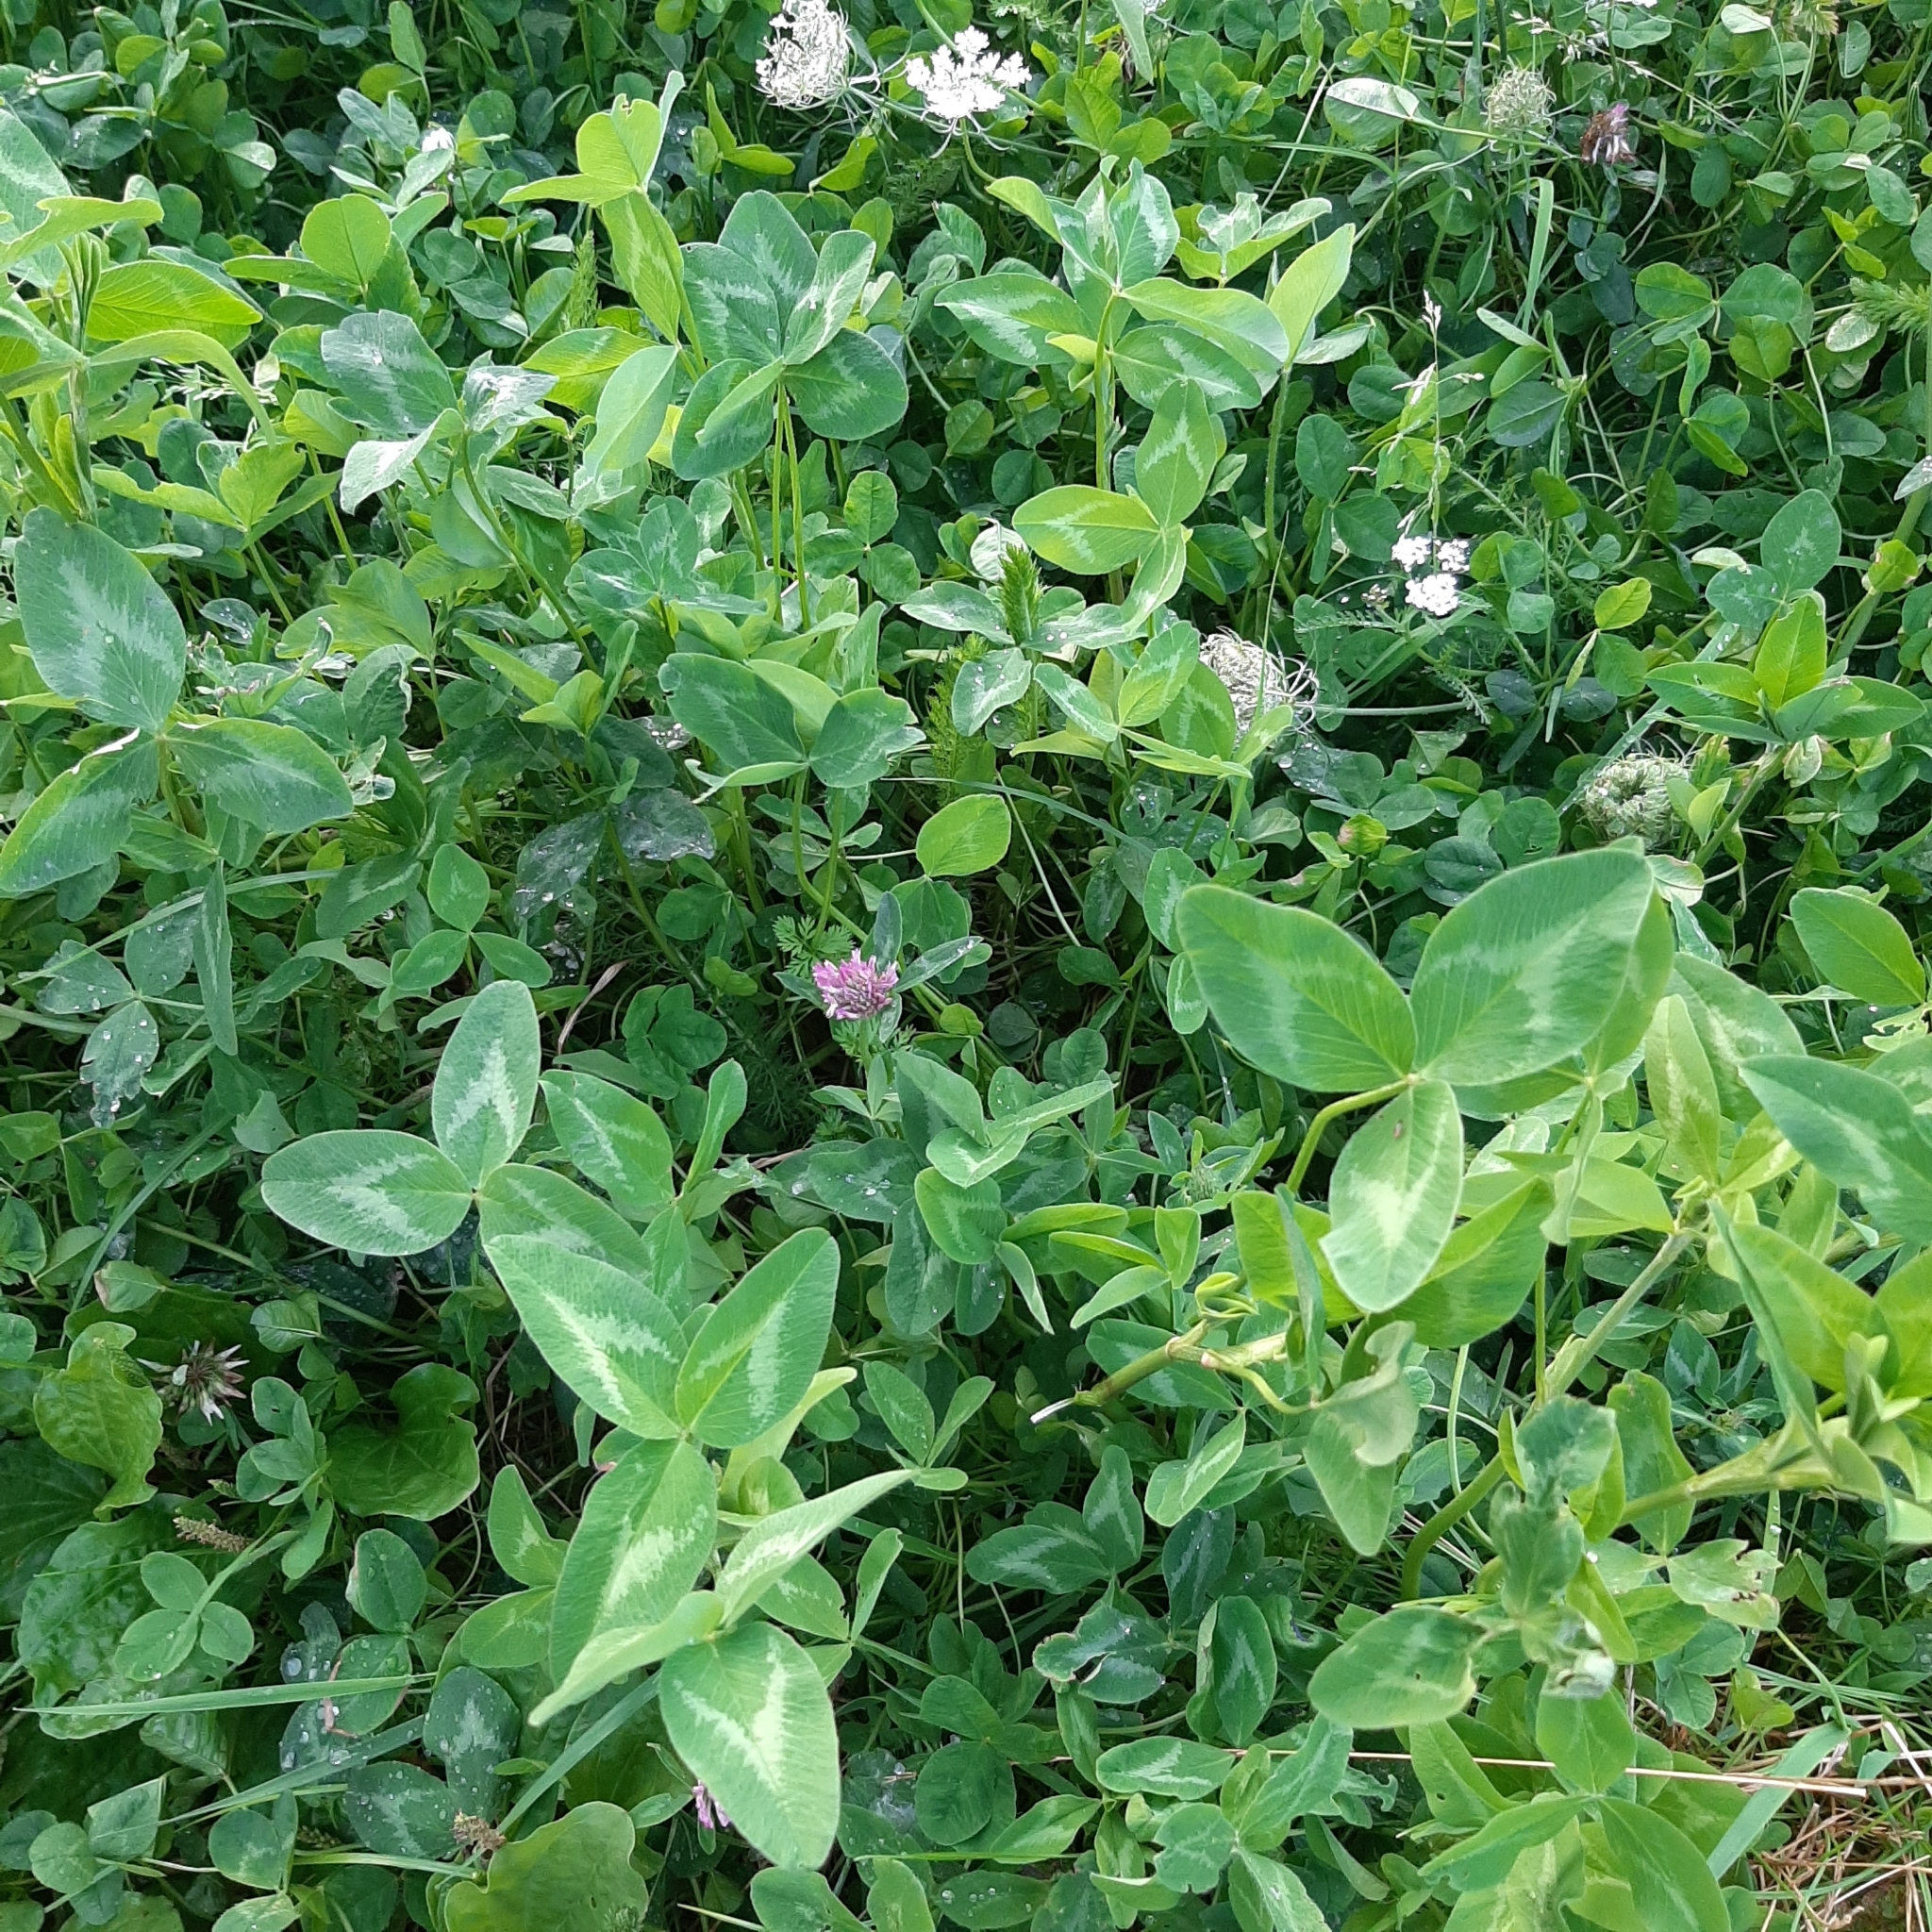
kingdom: Plantae
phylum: Tracheophyta
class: Magnoliopsida
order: Fabales
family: Fabaceae
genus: Trifolium
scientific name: Trifolium pratense
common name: Red clover
